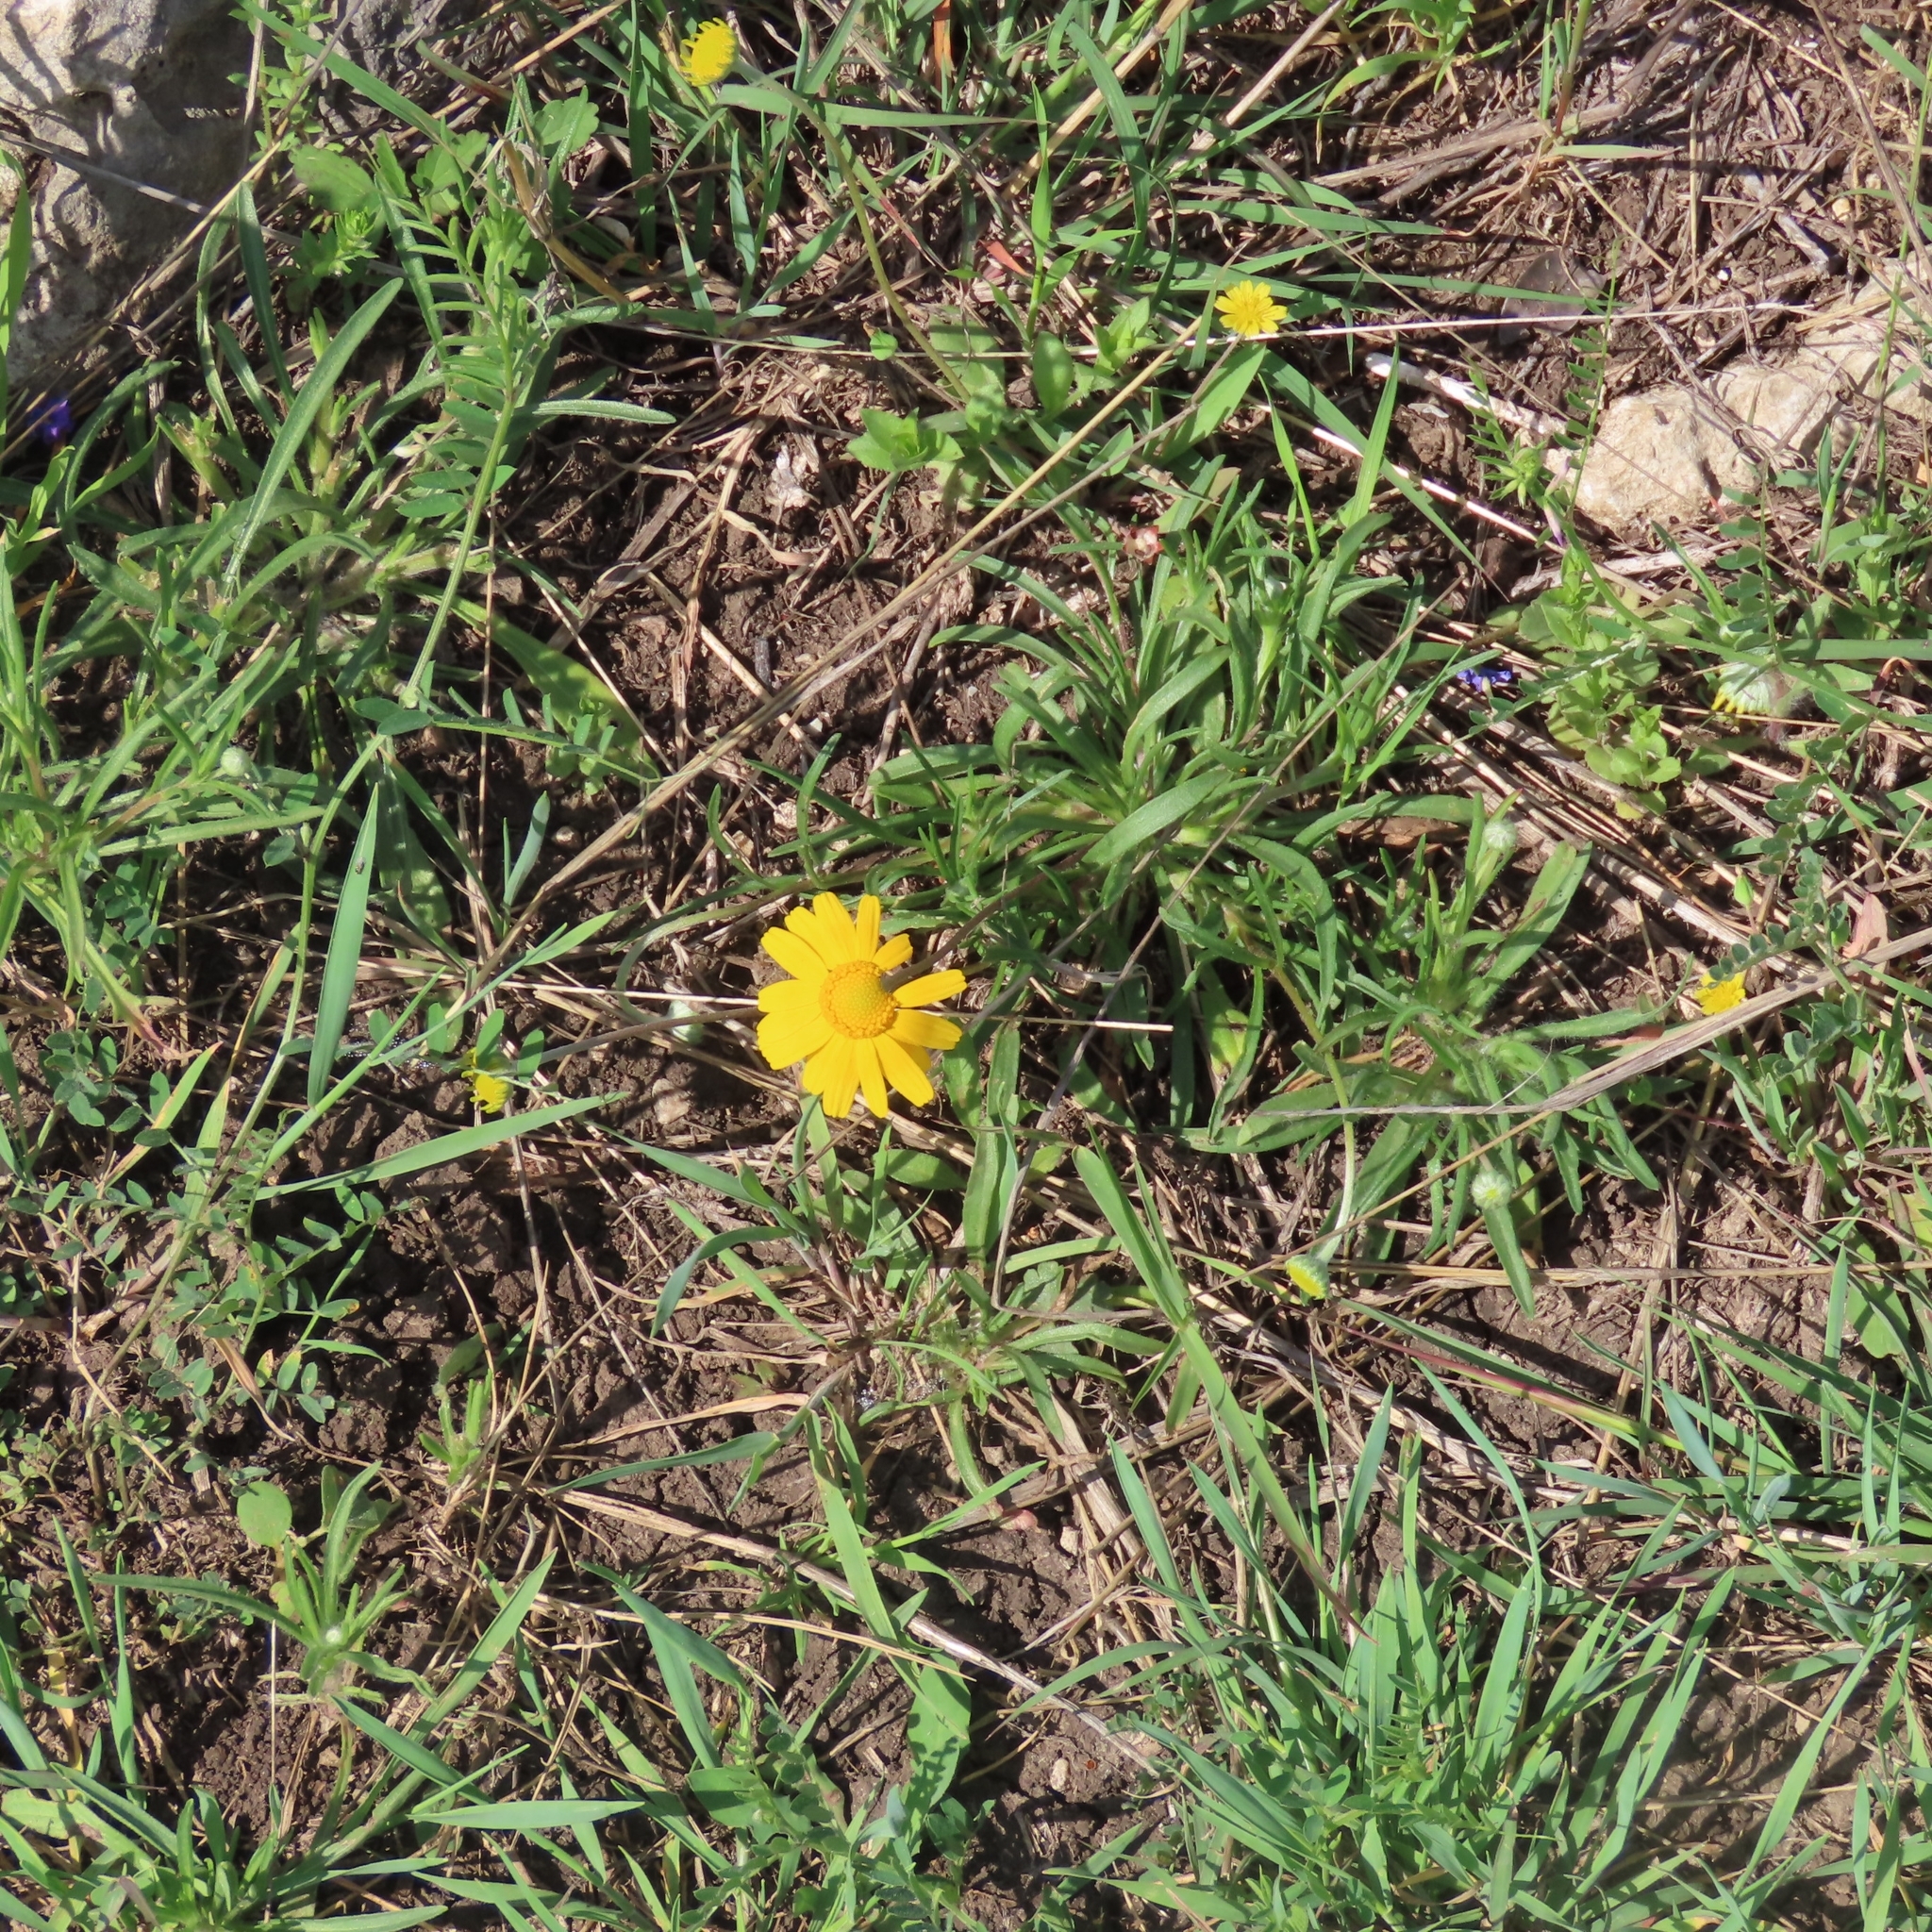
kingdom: Plantae
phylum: Tracheophyta
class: Magnoliopsida
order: Asterales
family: Asteraceae
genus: Tetraneuris
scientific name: Tetraneuris scaposa
